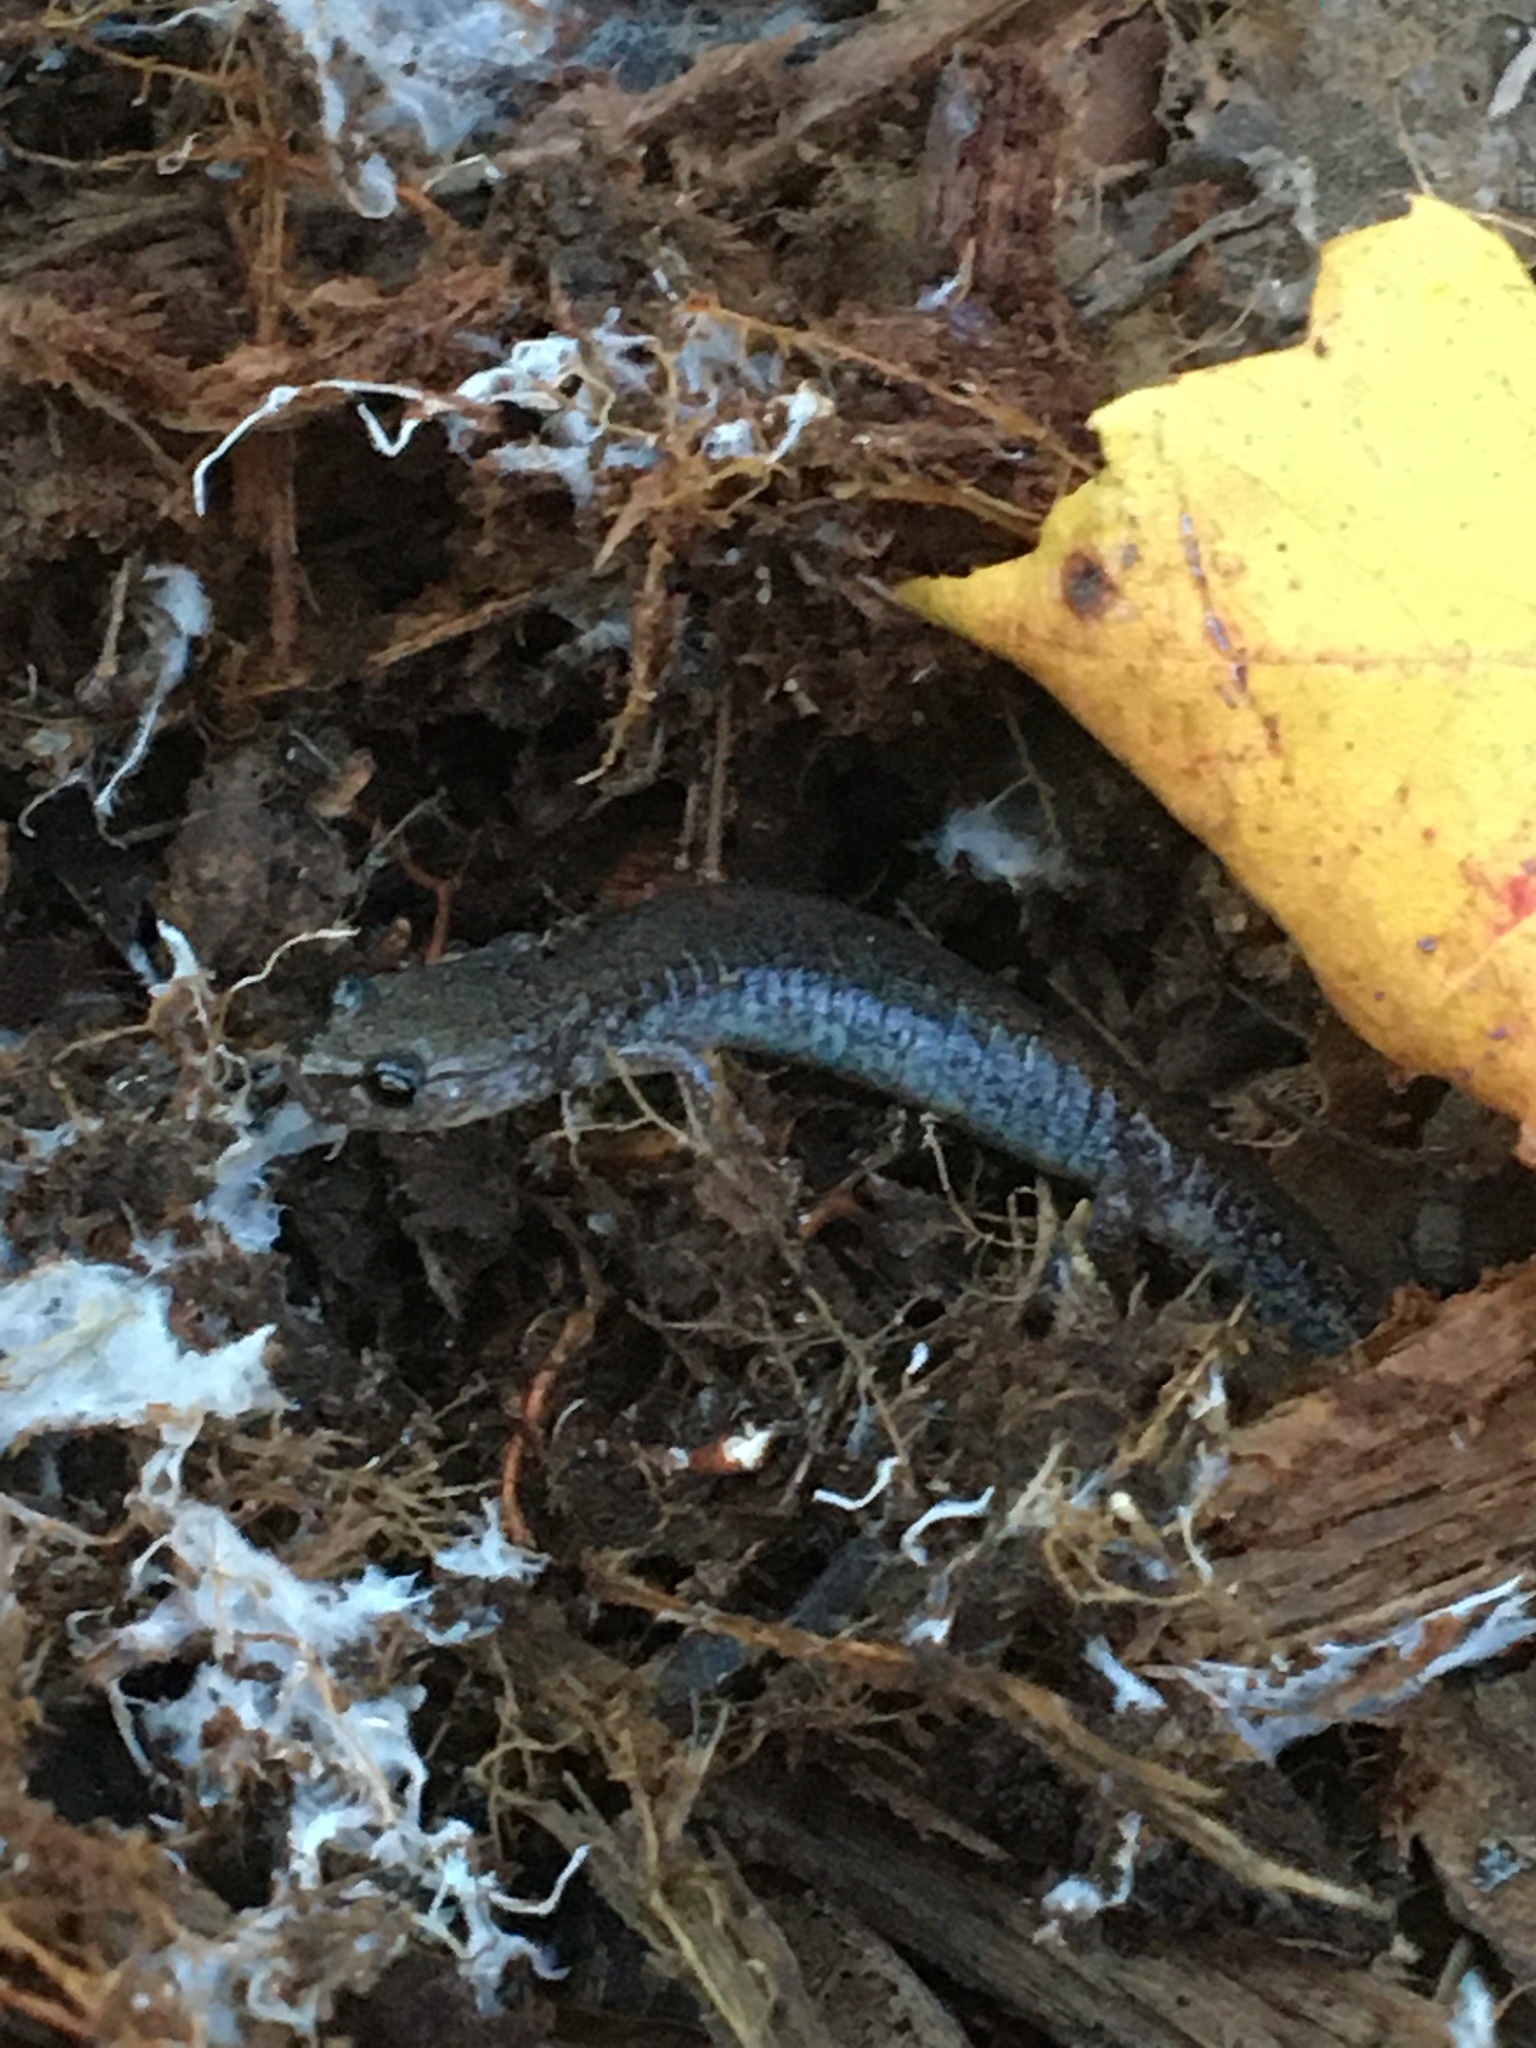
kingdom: Animalia
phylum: Chordata
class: Amphibia
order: Caudata
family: Plethodontidae
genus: Plethodon
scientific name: Plethodon cinereus
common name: Redback salamander
